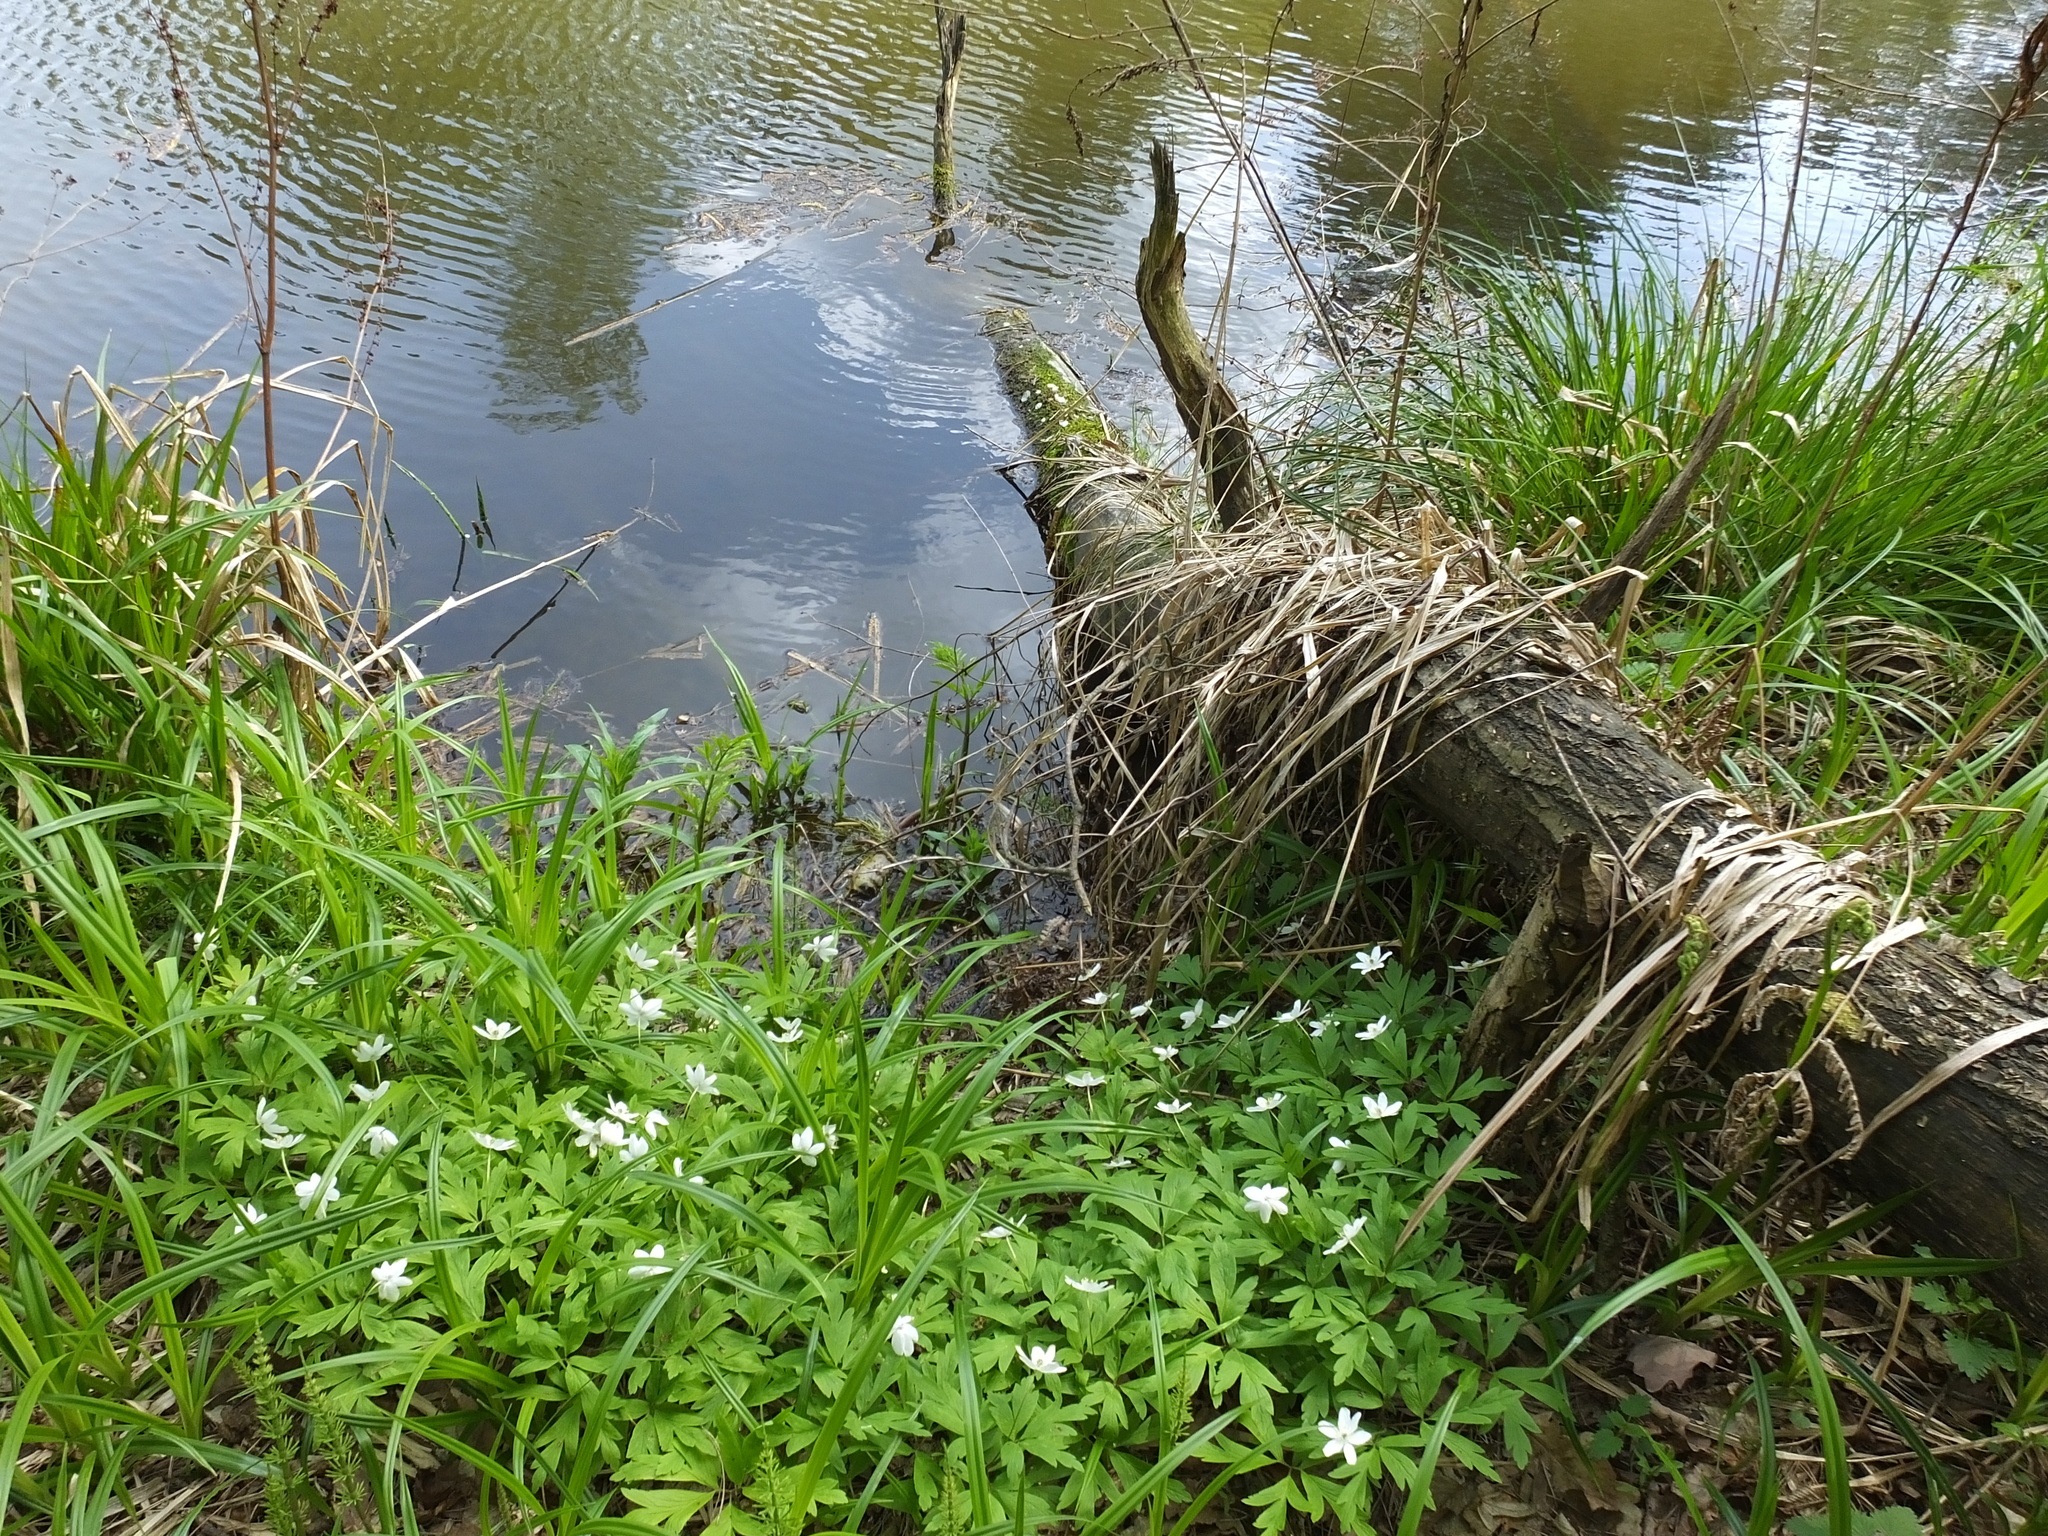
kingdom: Plantae
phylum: Tracheophyta
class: Magnoliopsida
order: Ranunculales
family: Ranunculaceae
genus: Anemone
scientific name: Anemone nemorosa
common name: Wood anemone
